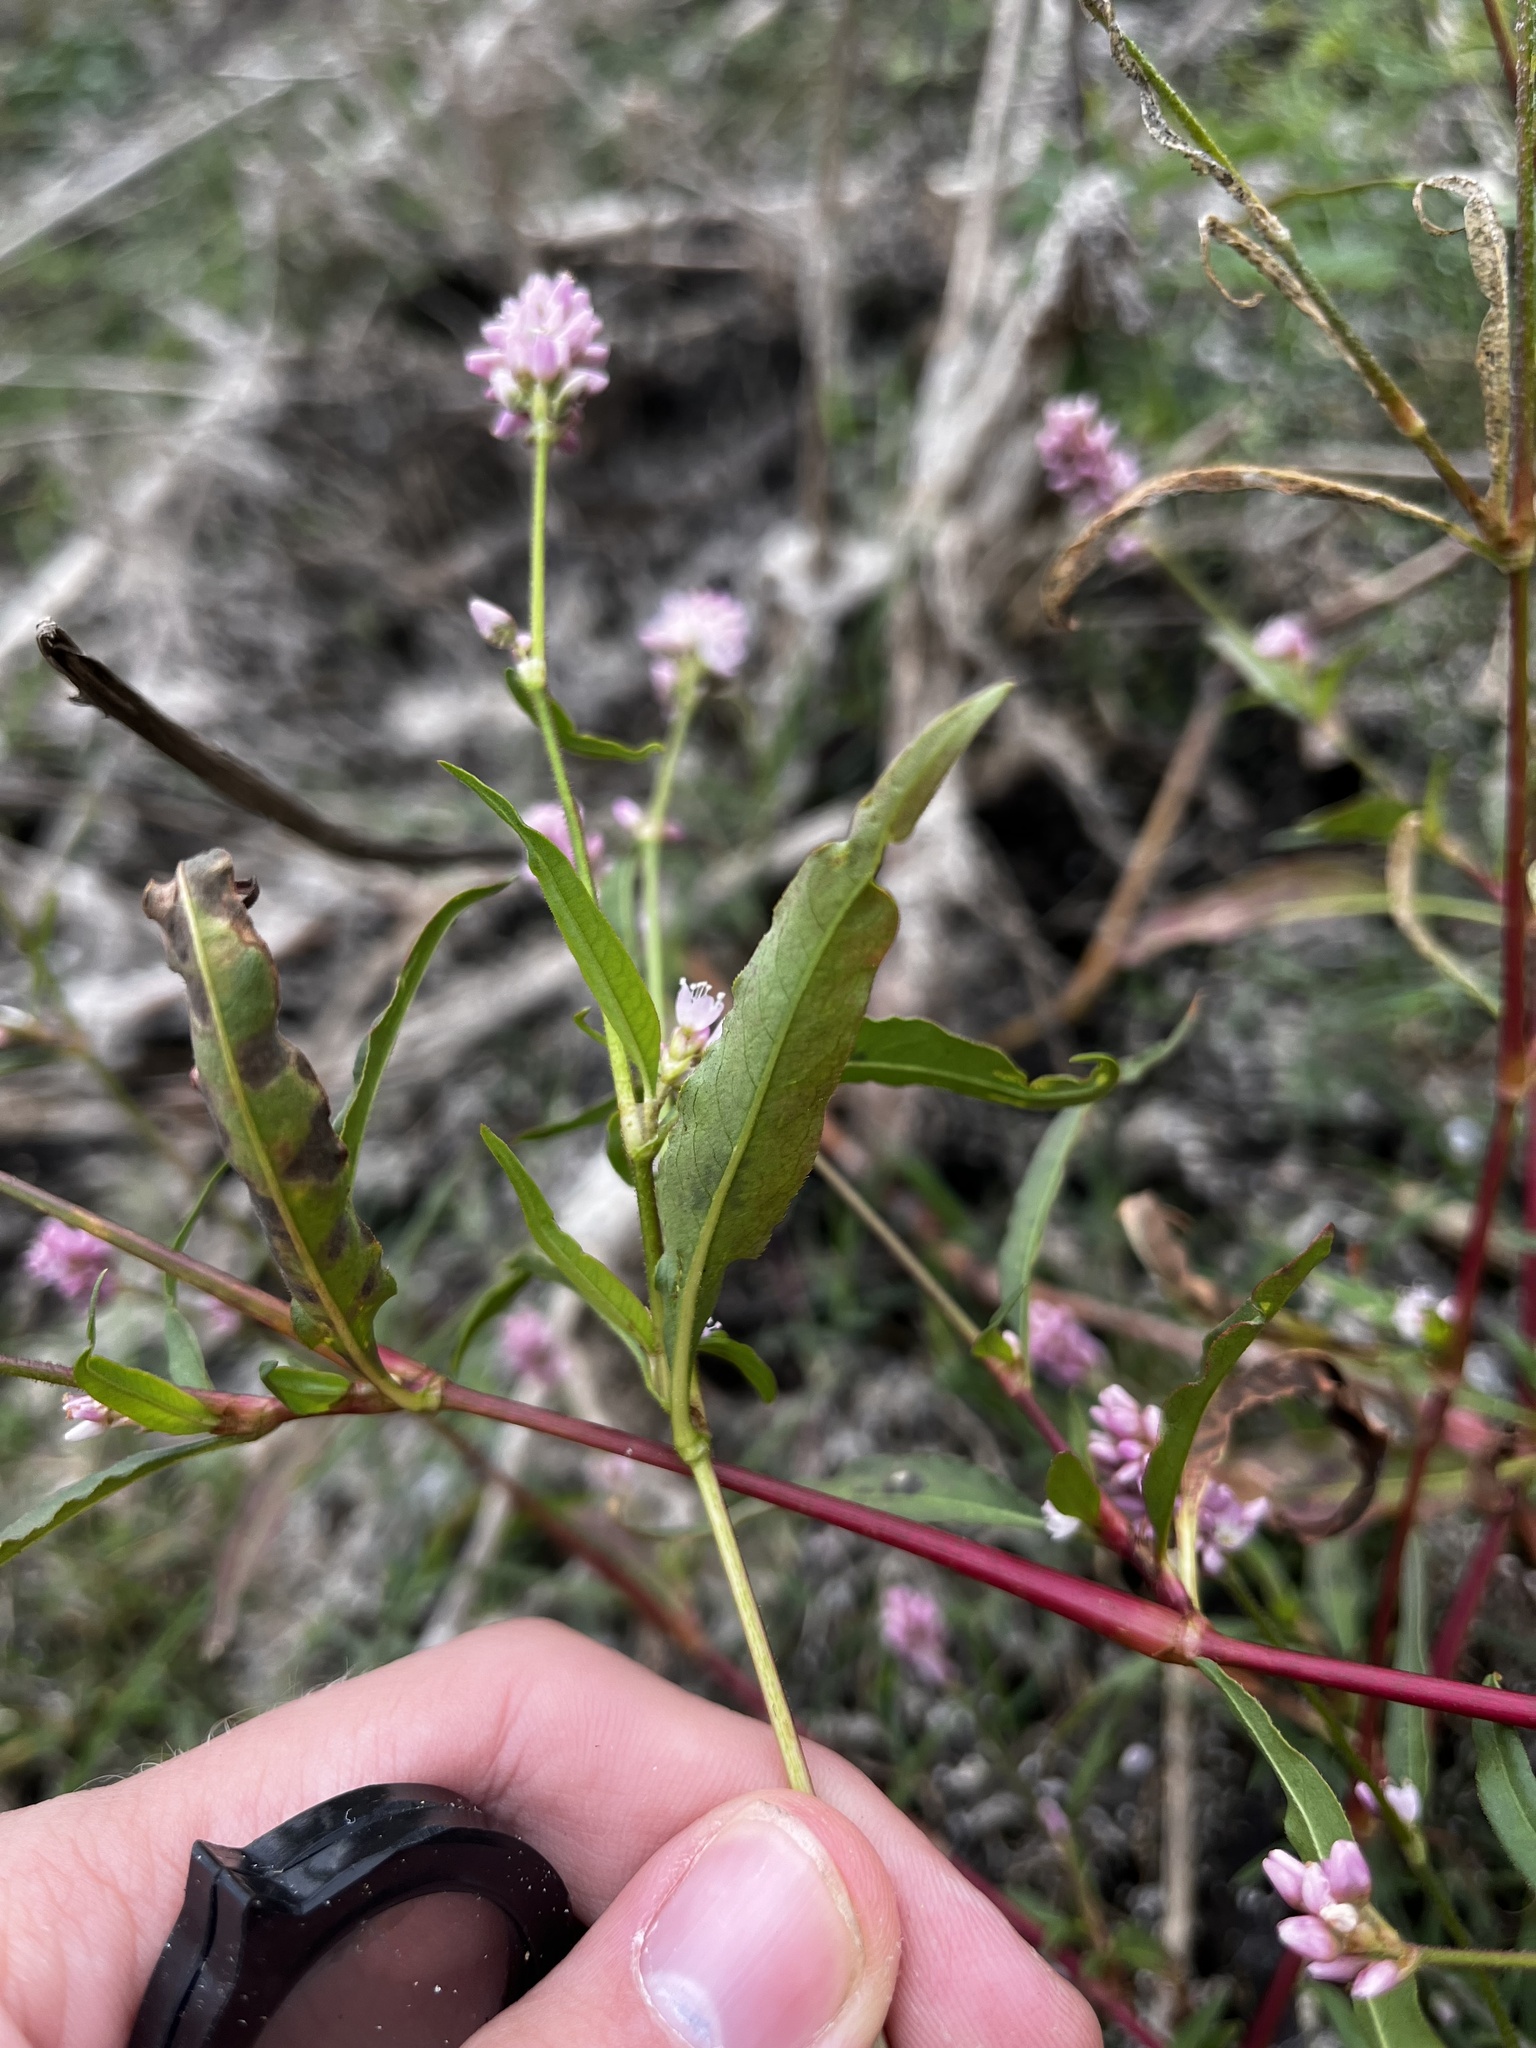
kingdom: Plantae
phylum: Tracheophyta
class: Magnoliopsida
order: Caryophyllales
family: Polygonaceae
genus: Persicaria
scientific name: Persicaria bicornis
